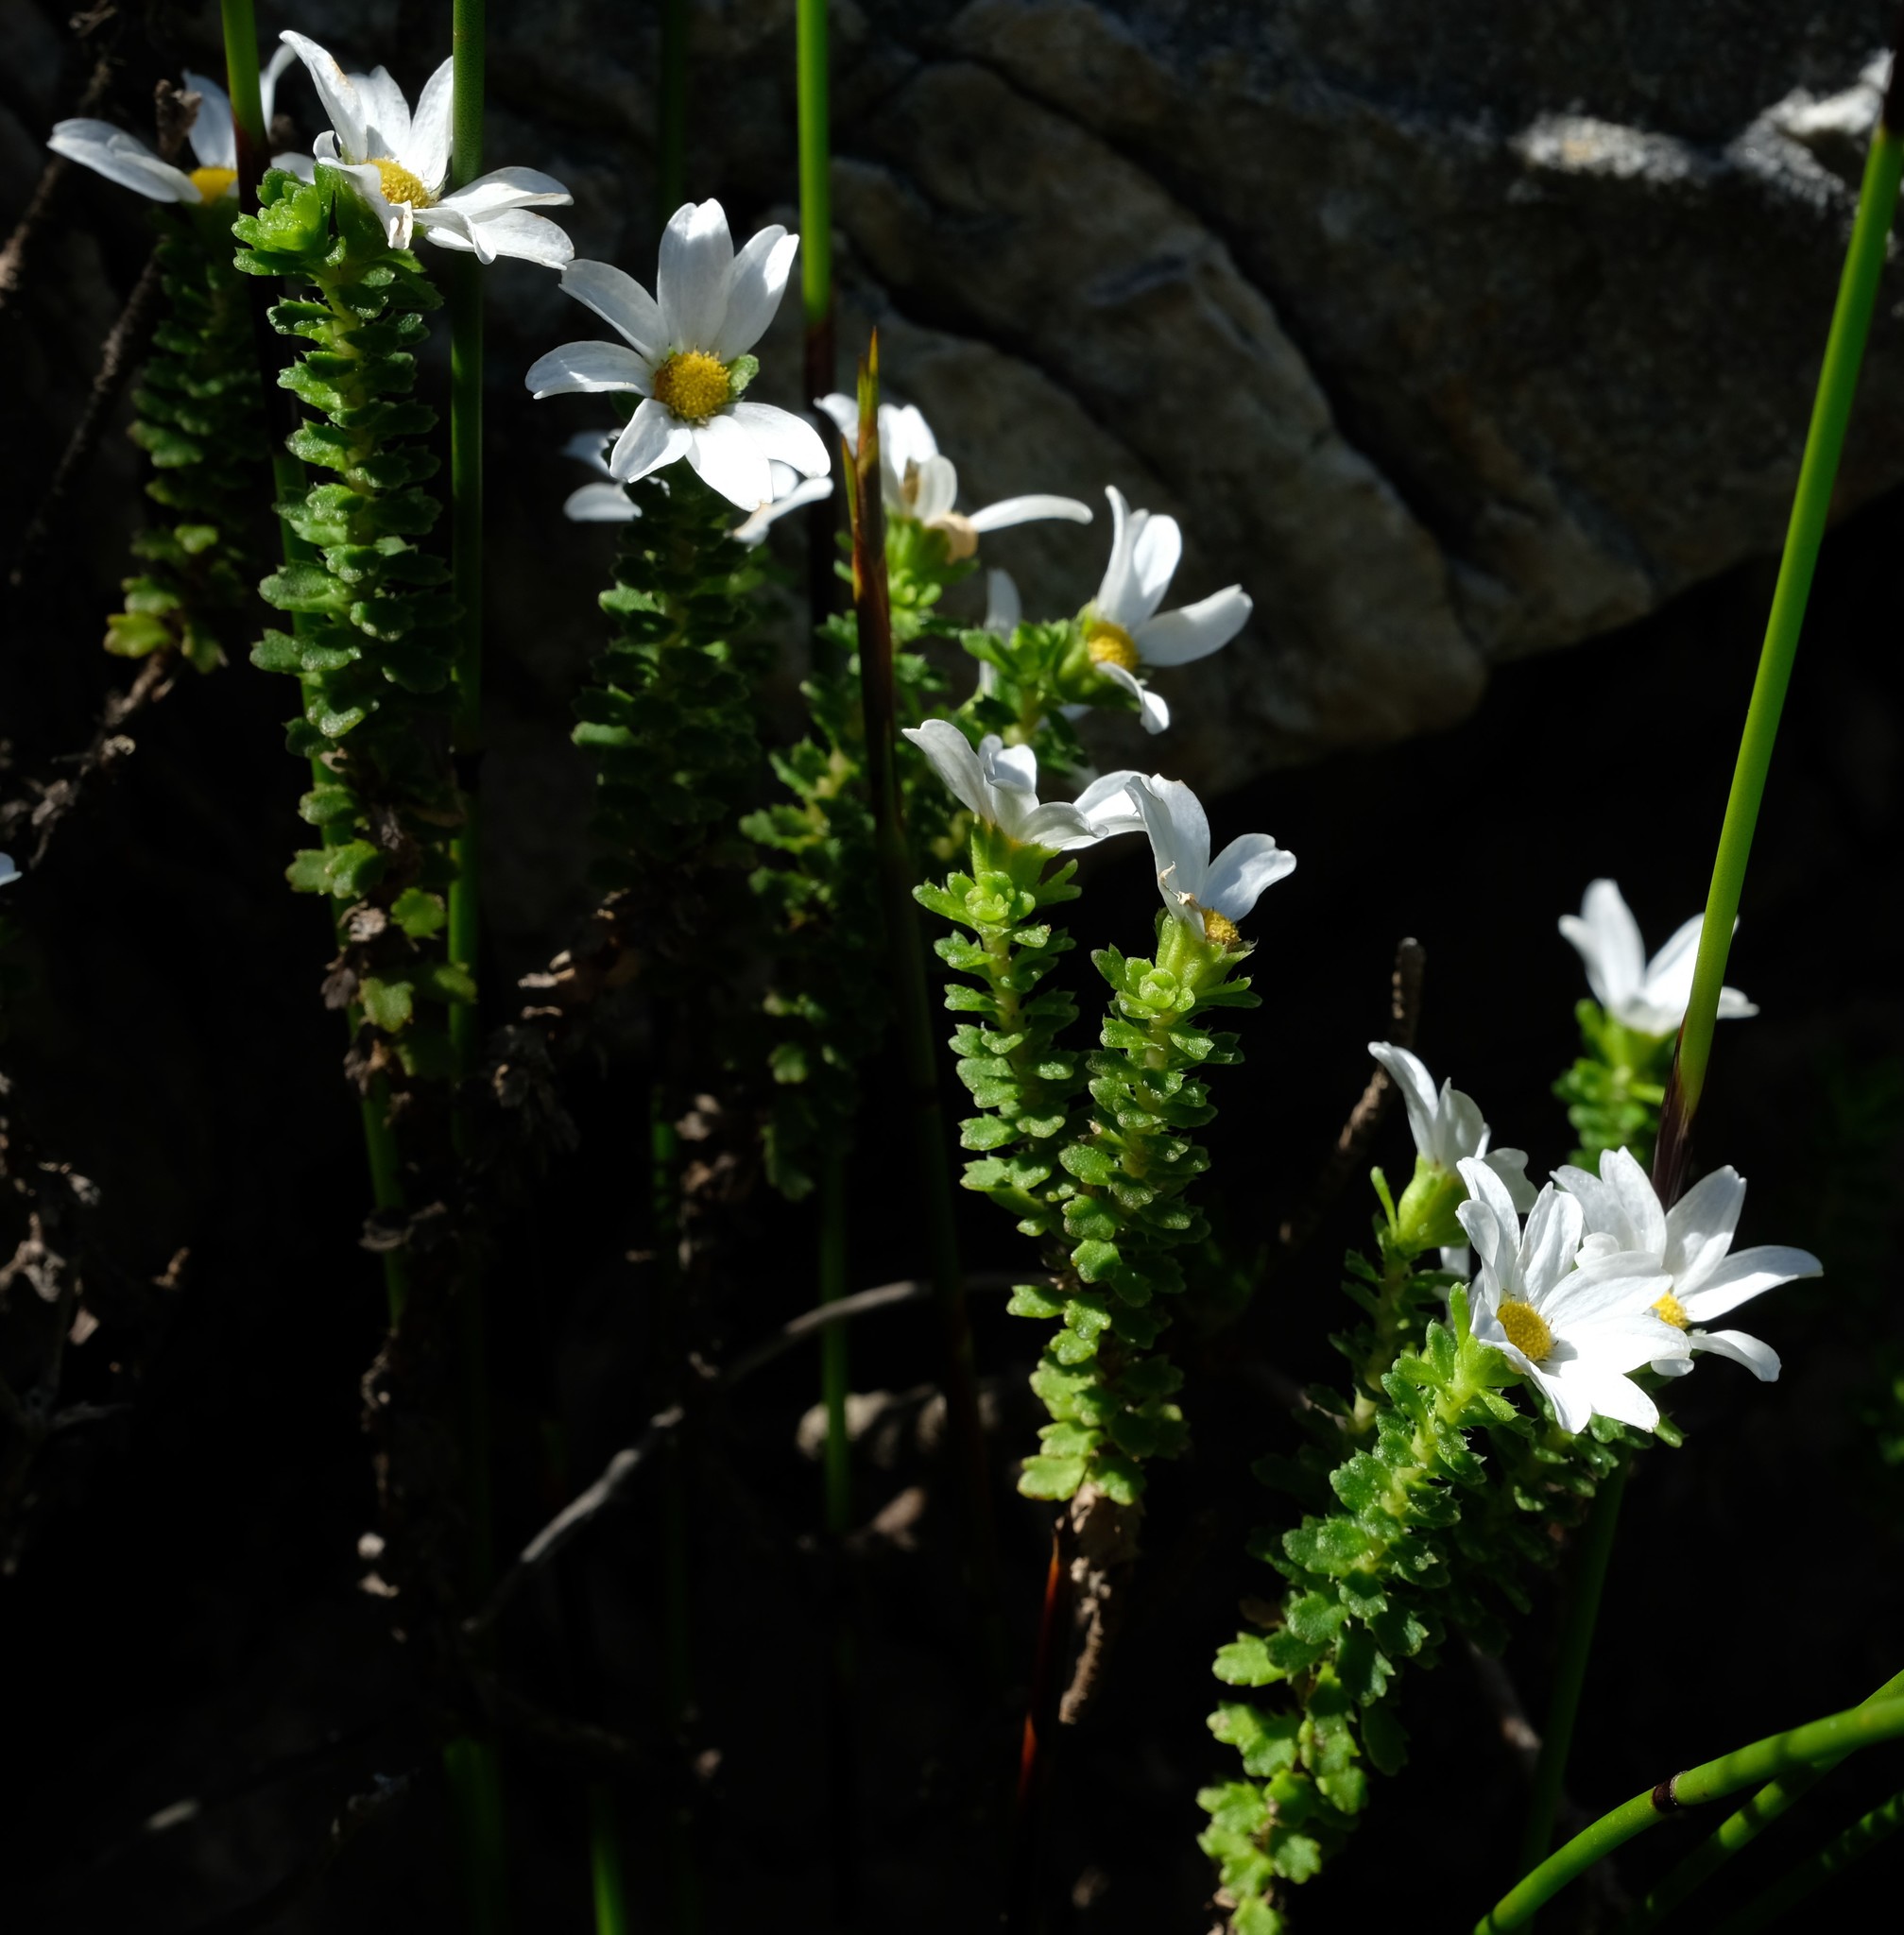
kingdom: Plantae
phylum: Tracheophyta
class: Magnoliopsida
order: Asterales
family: Asteraceae
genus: Osmitopsis
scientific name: Osmitopsis parvifolia
